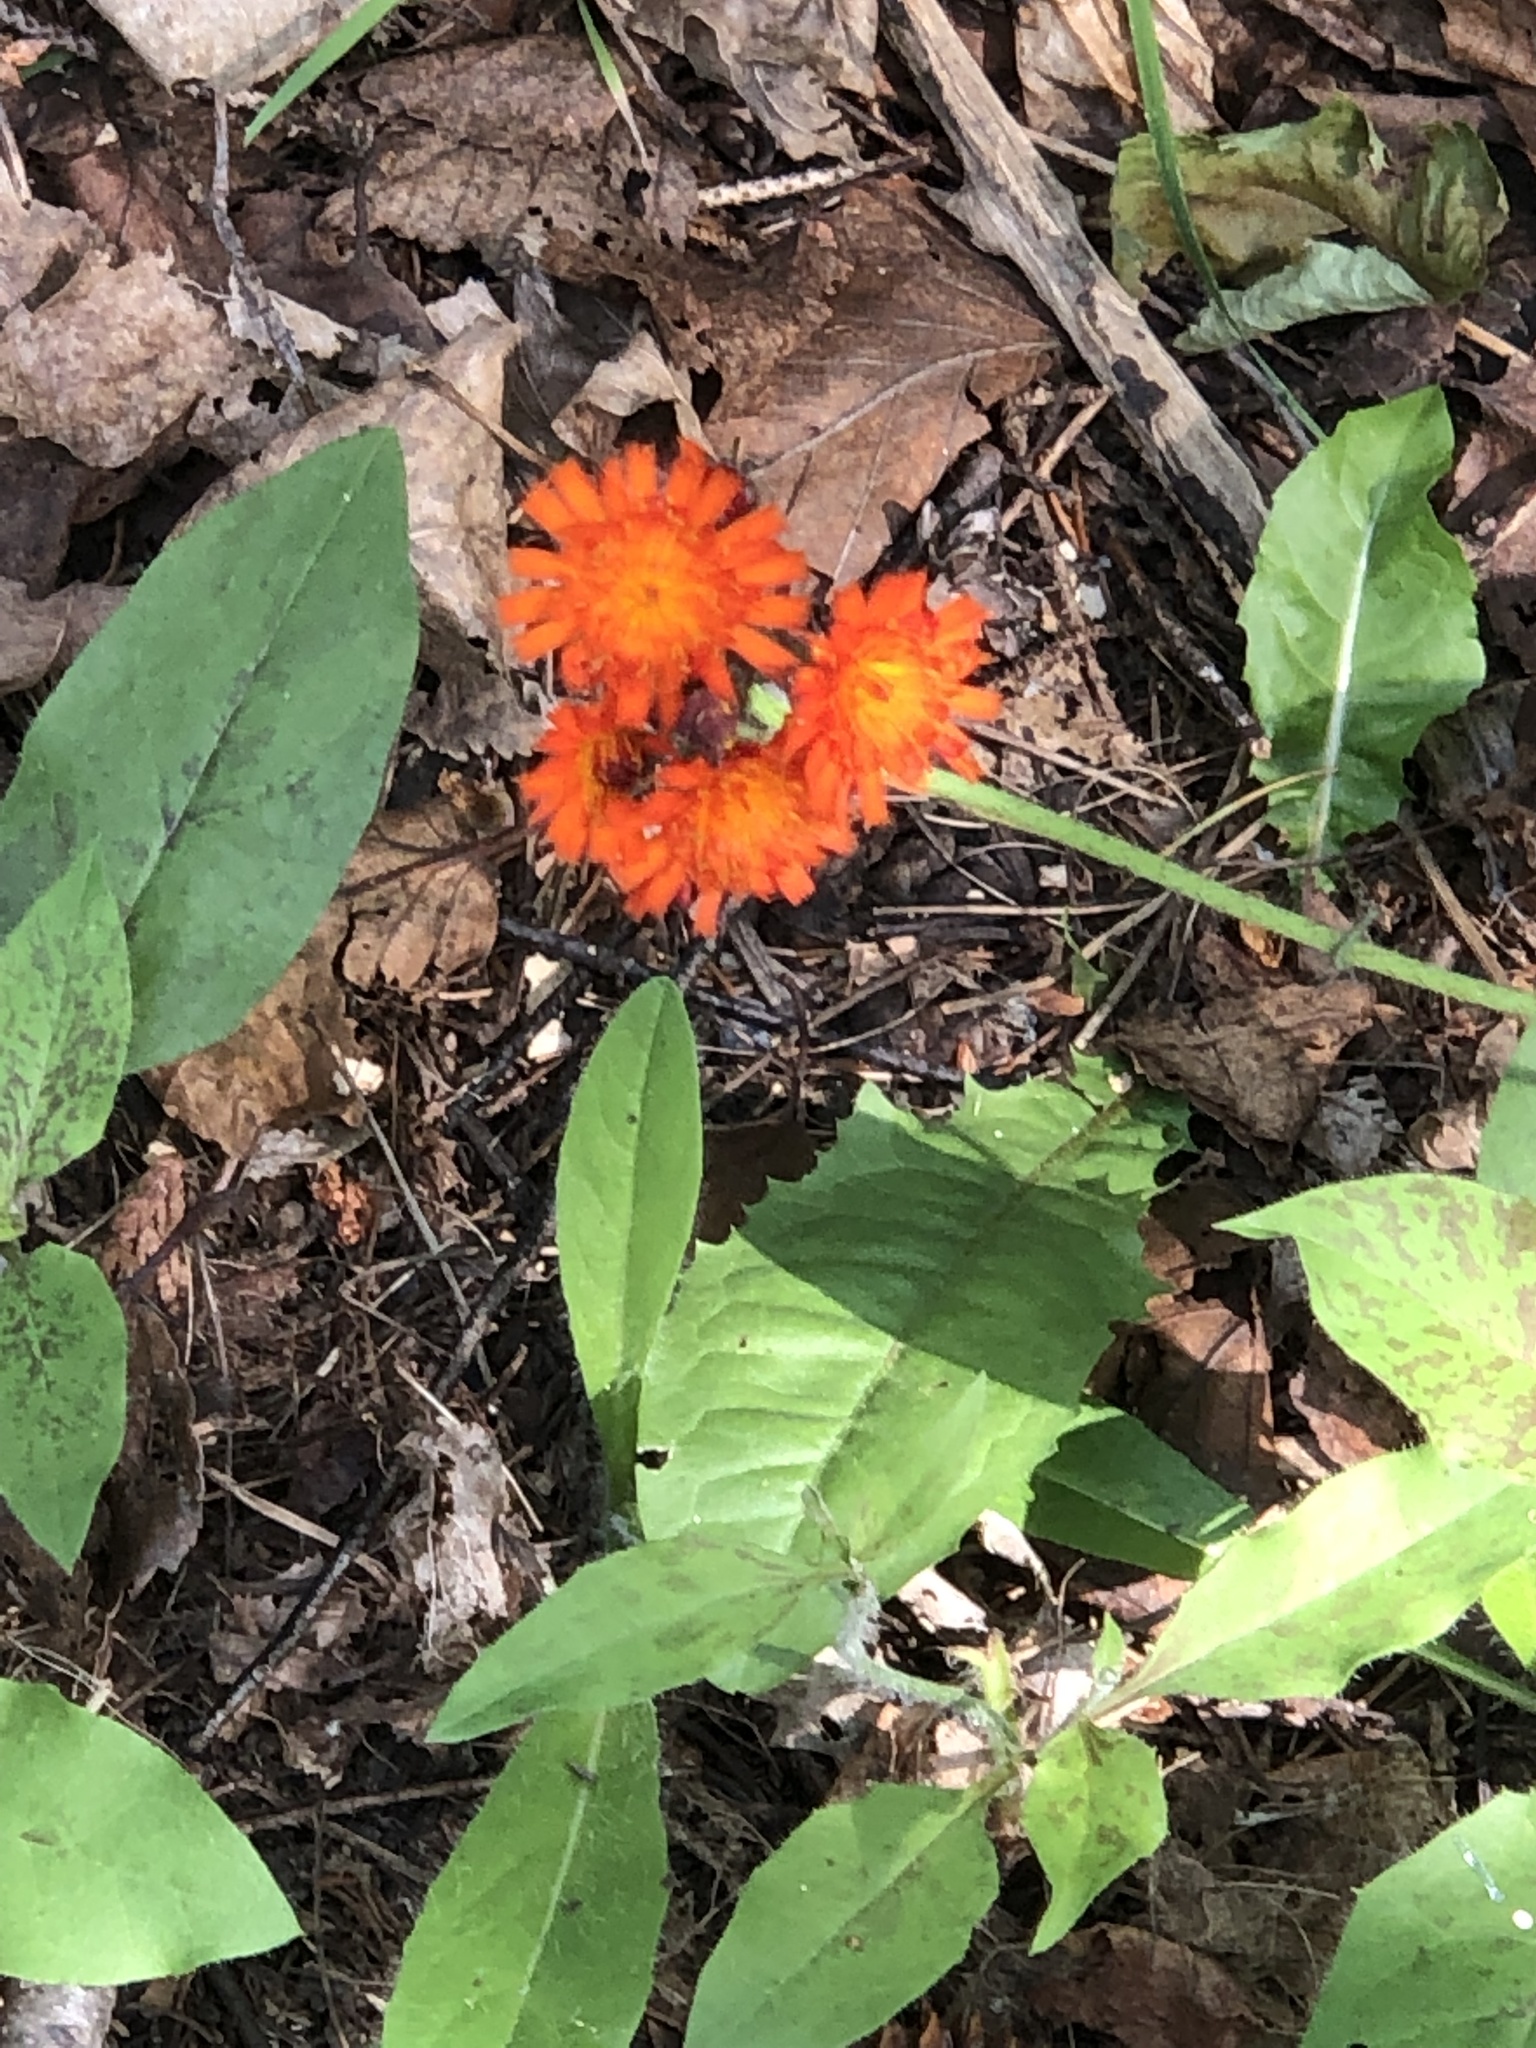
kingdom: Plantae
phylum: Tracheophyta
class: Magnoliopsida
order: Asterales
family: Asteraceae
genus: Pilosella
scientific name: Pilosella aurantiaca
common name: Fox-and-cubs
